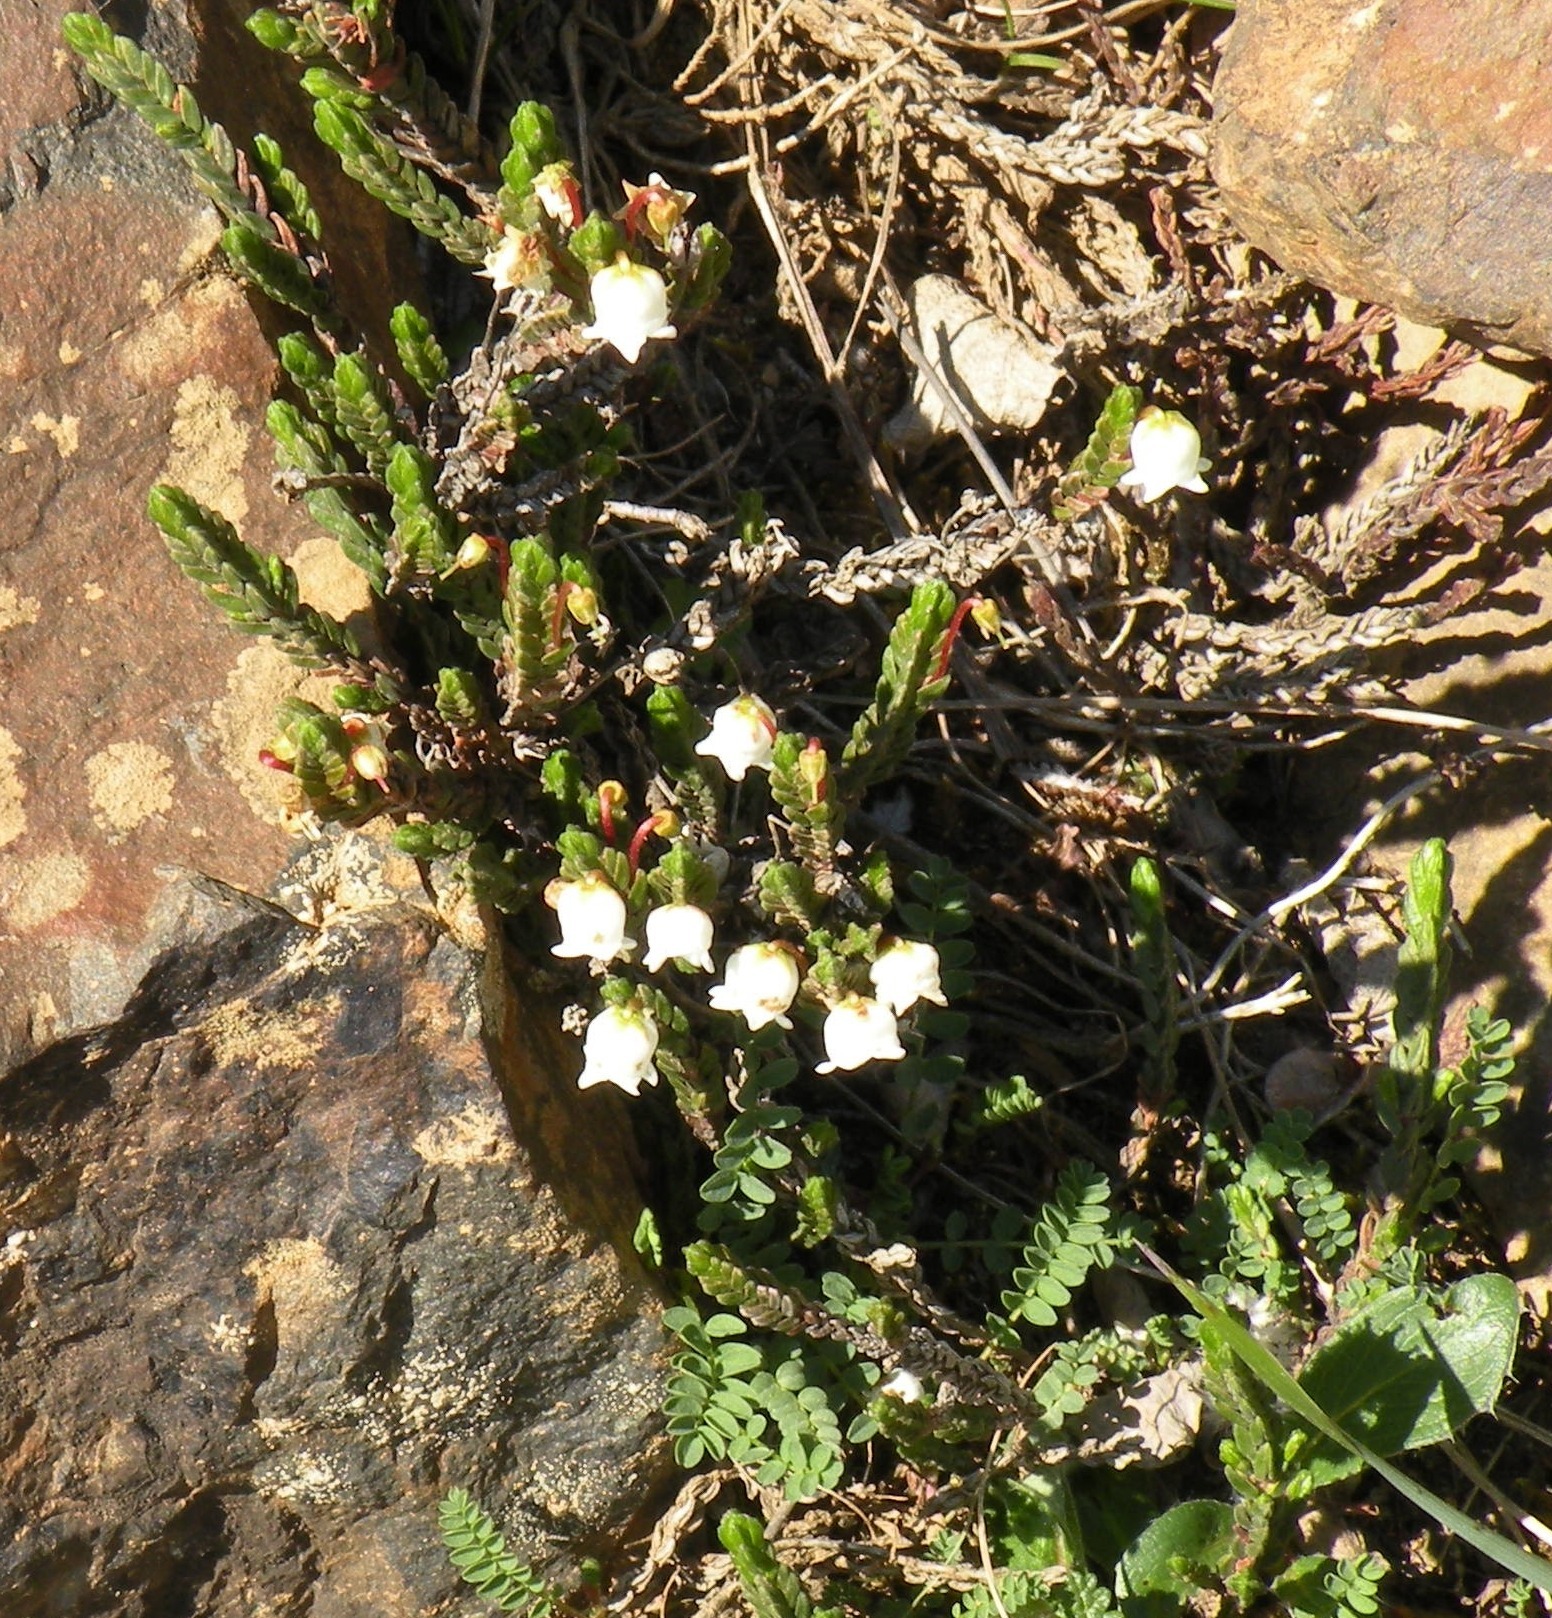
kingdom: Plantae
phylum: Tracheophyta
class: Magnoliopsida
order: Ericales
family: Ericaceae
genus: Cassiope
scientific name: Cassiope tetragona
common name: Arctic bell heather
